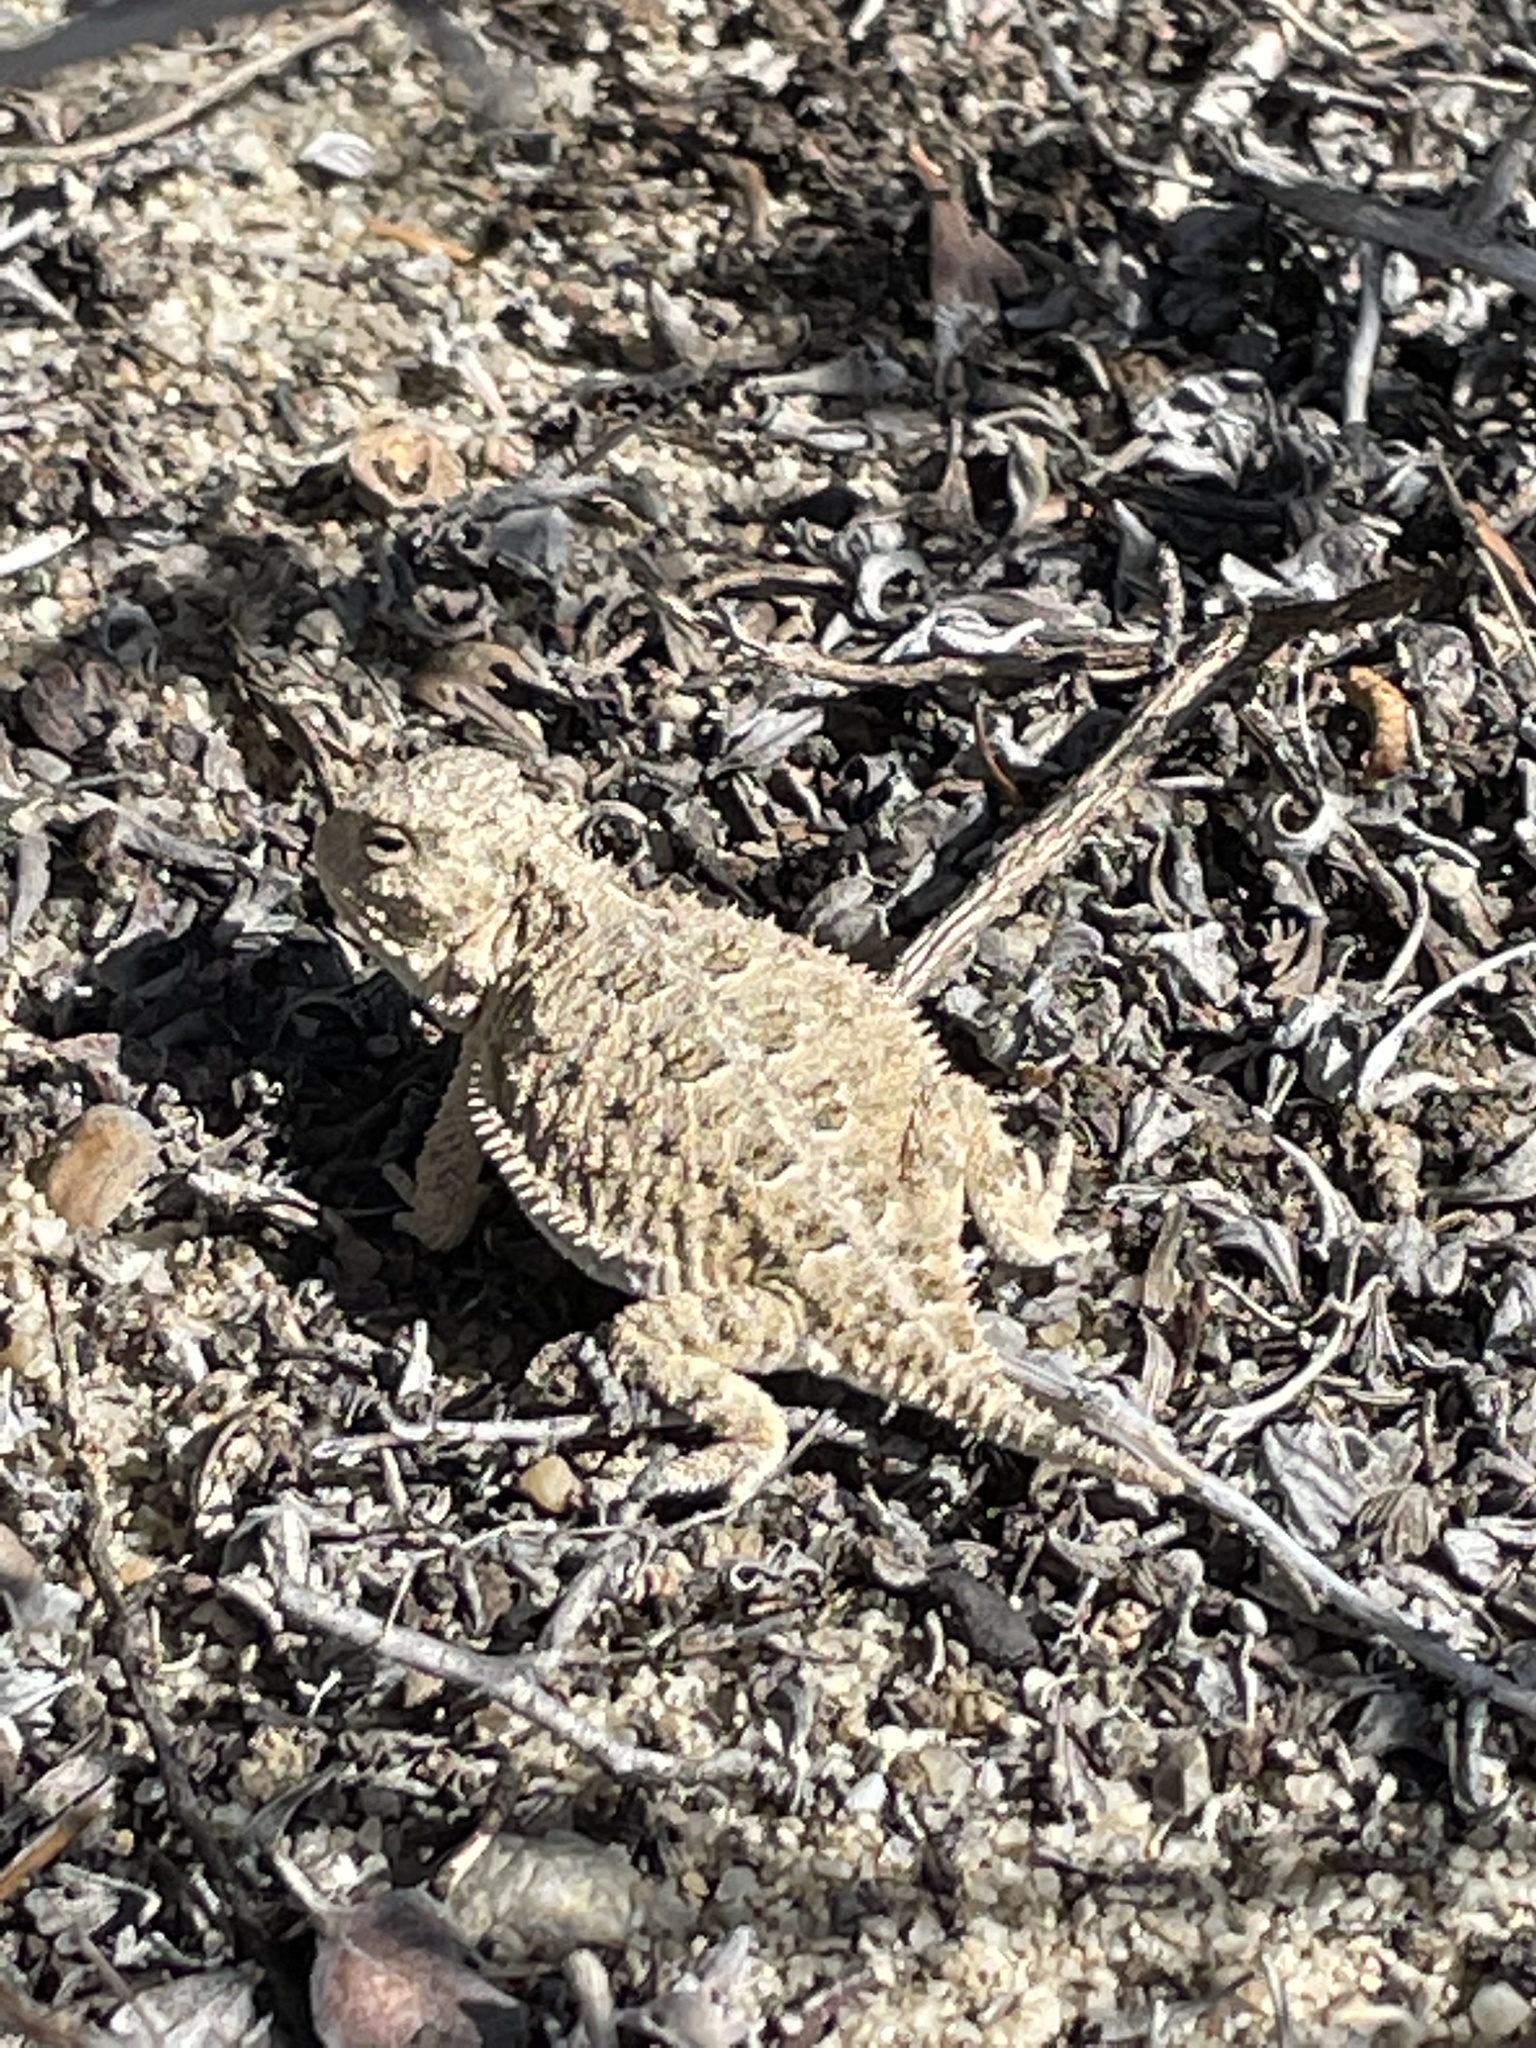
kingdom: Animalia
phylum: Chordata
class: Squamata
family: Phrynosomatidae
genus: Phrynosoma
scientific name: Phrynosoma hernandesi
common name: Greater short-horned lizard
